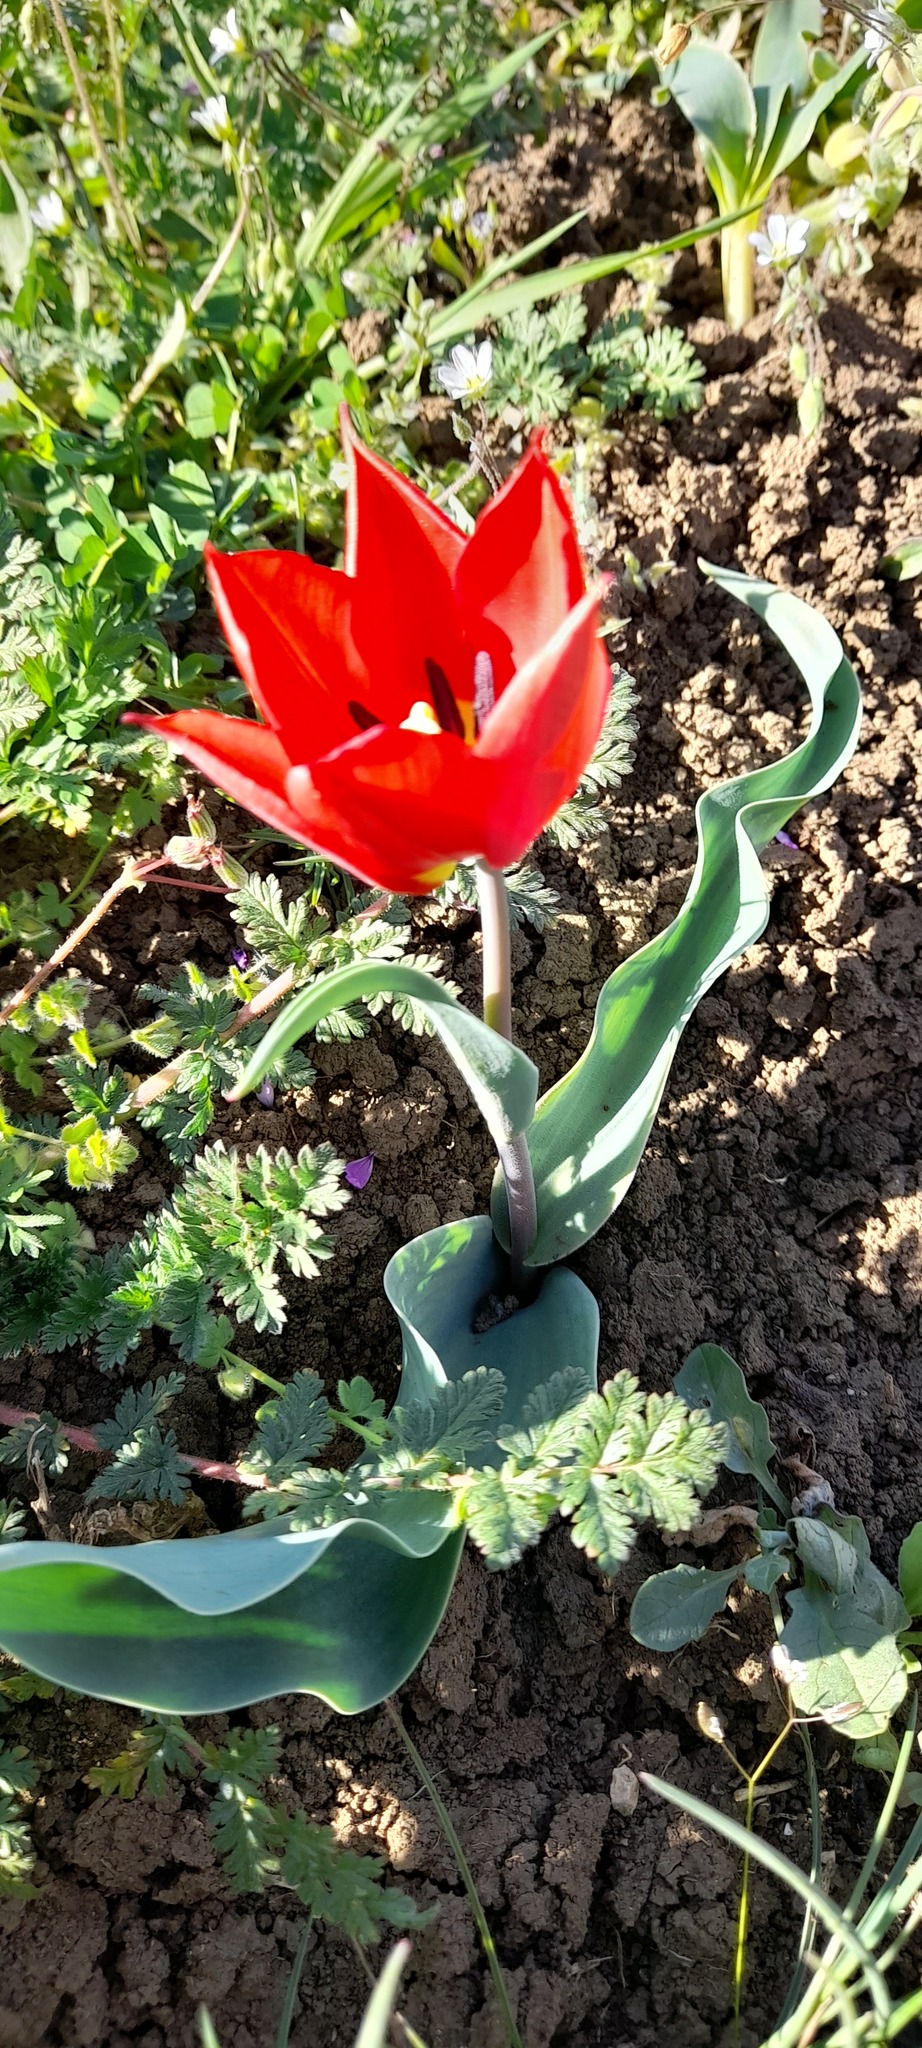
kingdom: Plantae
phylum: Tracheophyta
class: Liliopsida
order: Liliales
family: Liliaceae
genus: Tulipa
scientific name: Tulipa suaveolens
